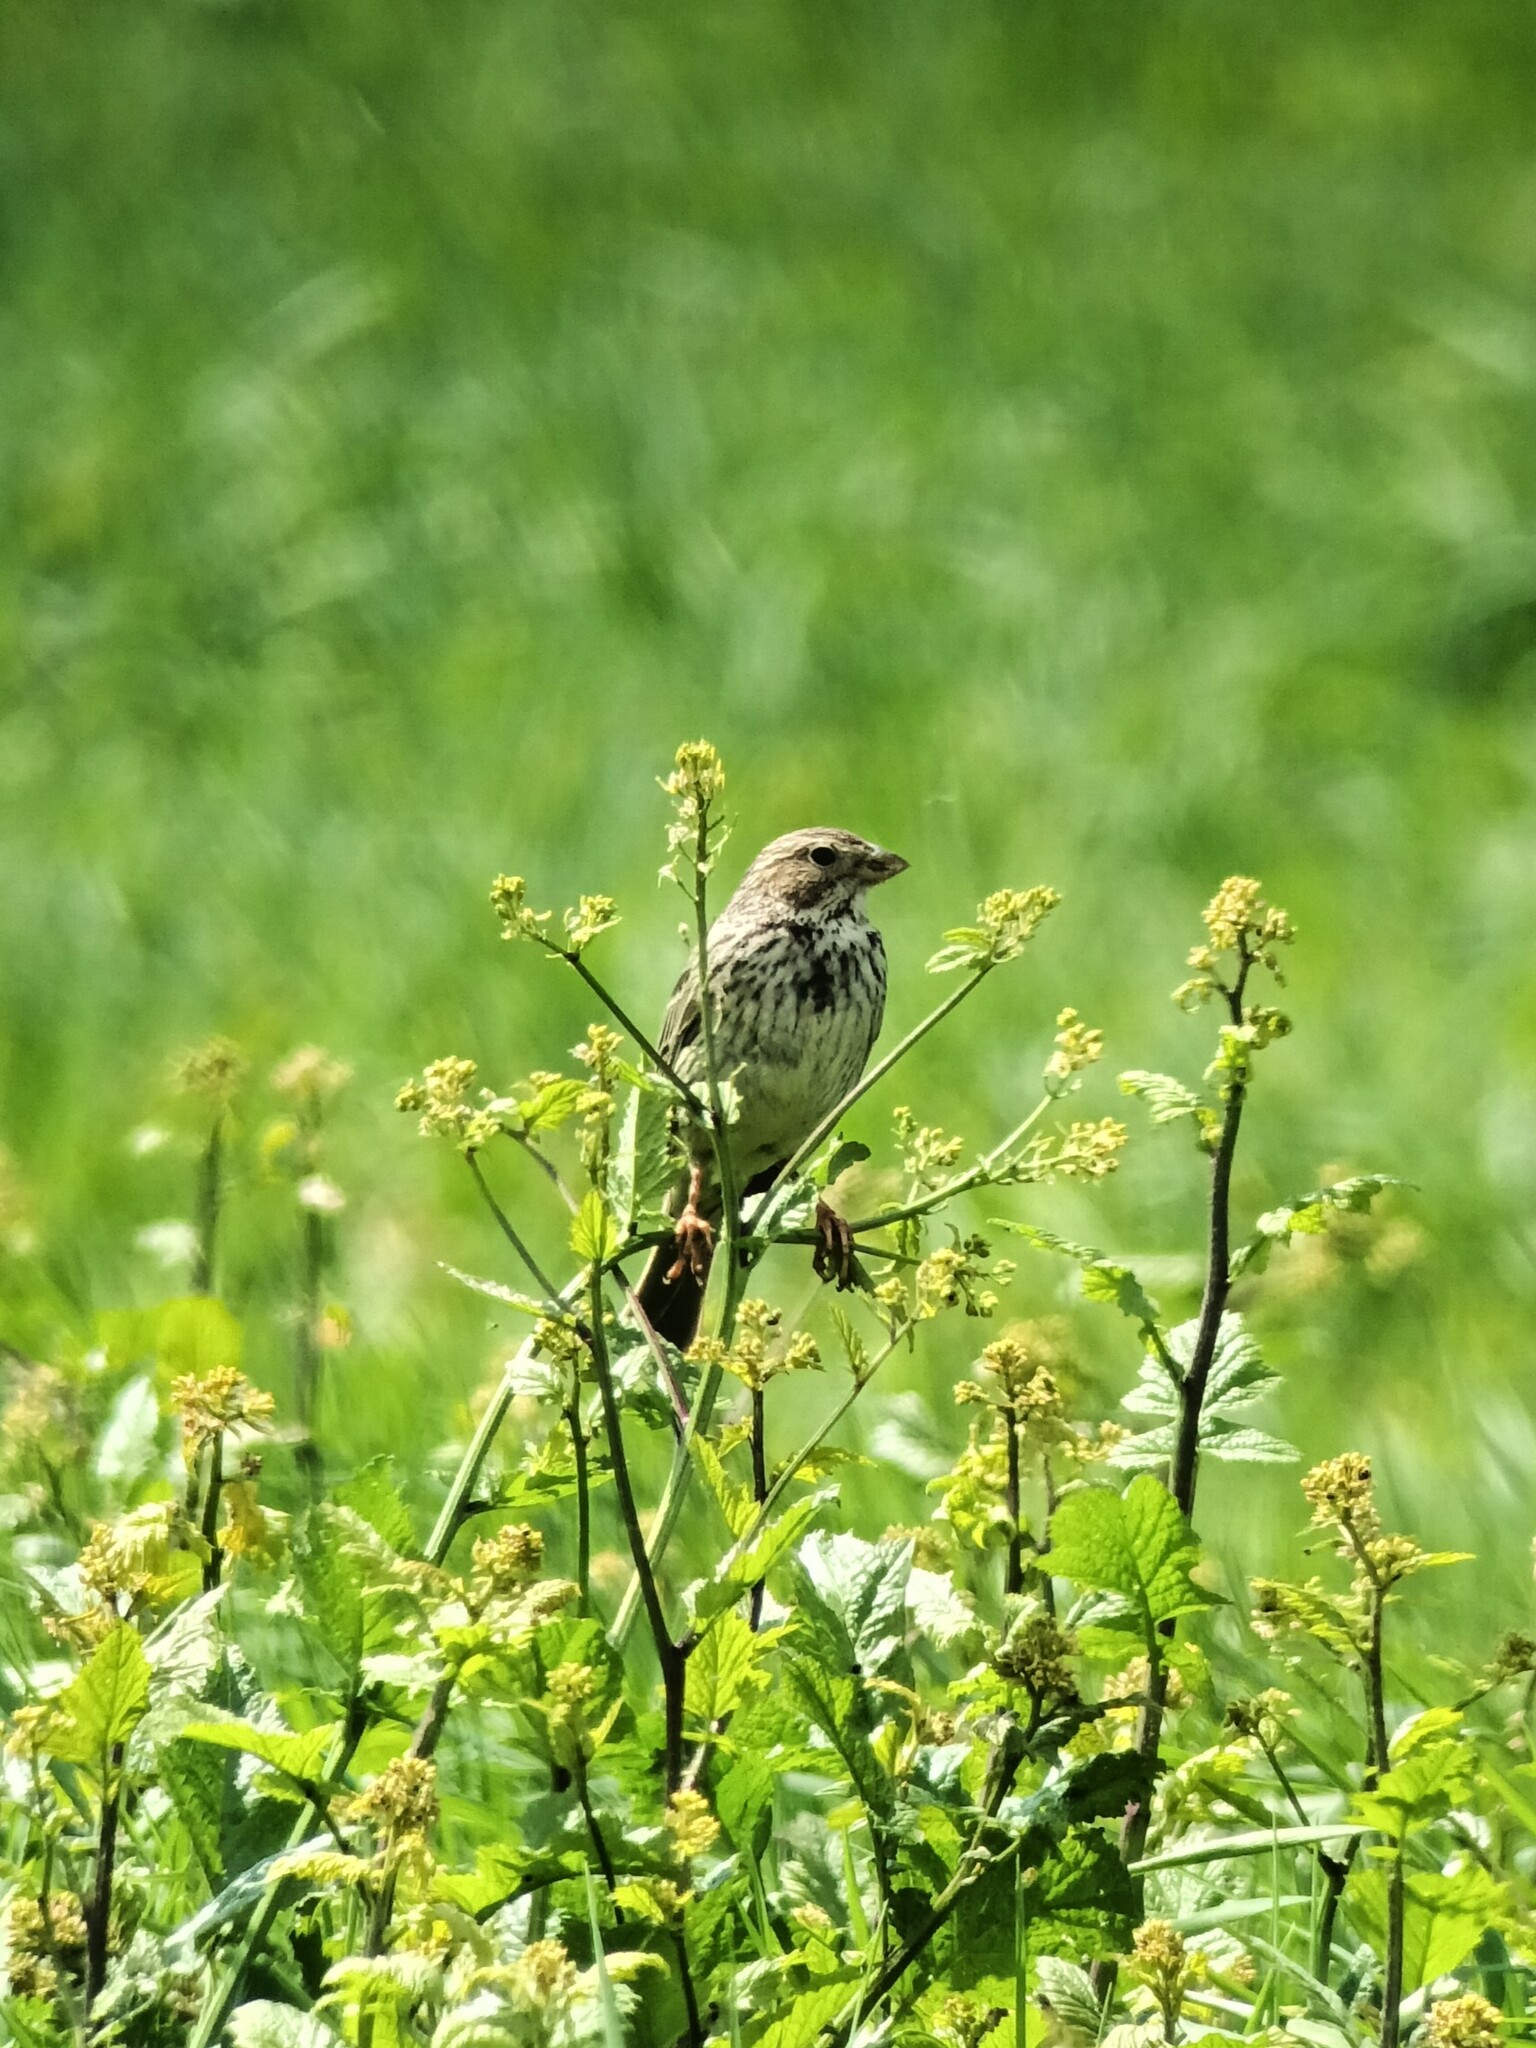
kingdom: Animalia
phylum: Chordata
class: Aves
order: Passeriformes
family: Emberizidae
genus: Emberiza
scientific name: Emberiza calandra
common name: Corn bunting
